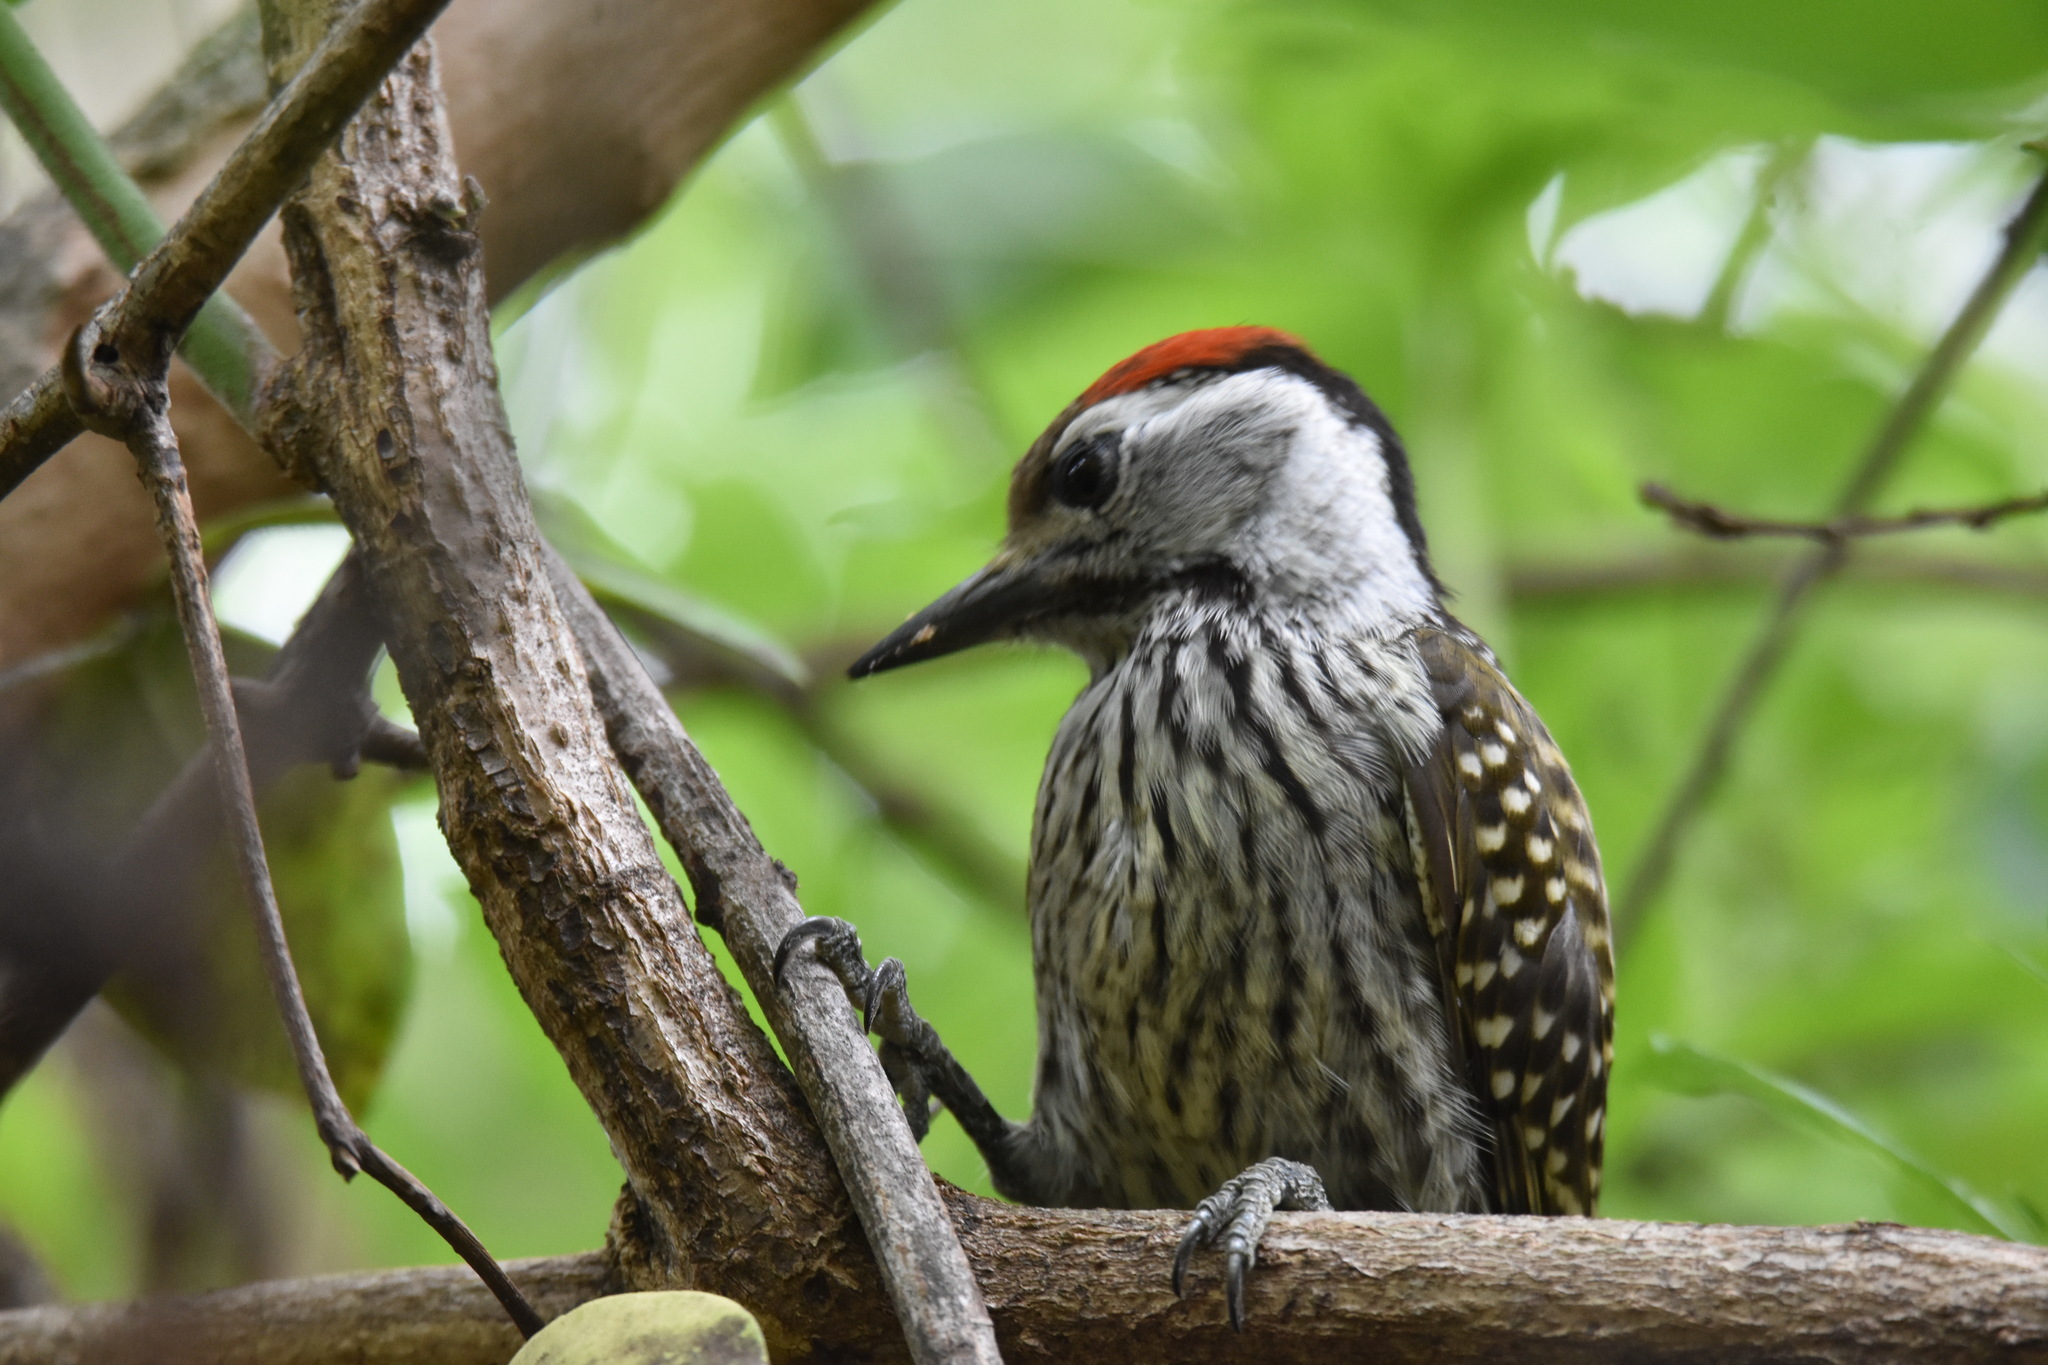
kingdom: Animalia
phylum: Chordata
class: Aves
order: Piciformes
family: Picidae
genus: Dendropicos
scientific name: Dendropicos fuscescens
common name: Cardinal woodpecker
